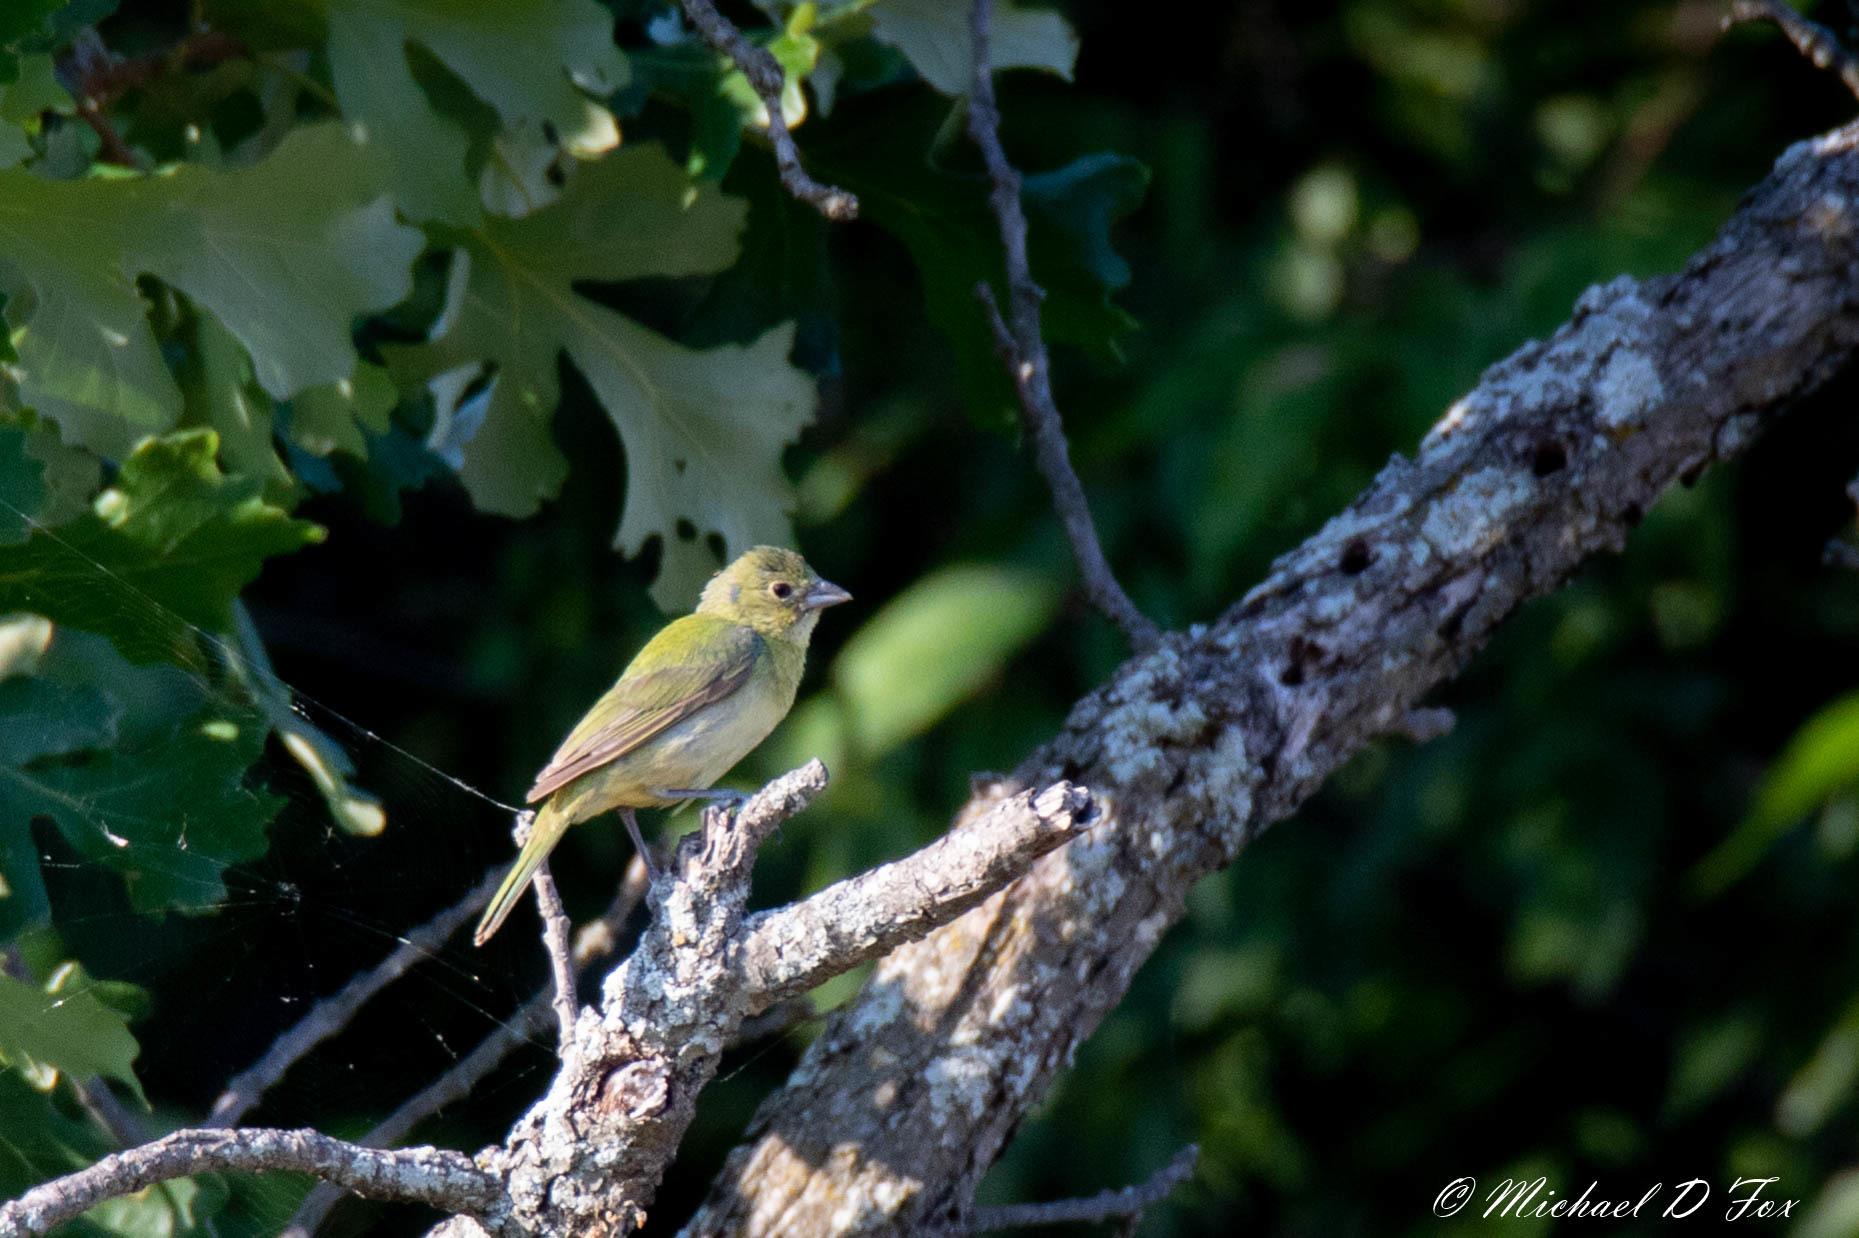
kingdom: Animalia
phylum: Chordata
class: Aves
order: Passeriformes
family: Cardinalidae
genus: Passerina
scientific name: Passerina ciris
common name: Painted bunting
